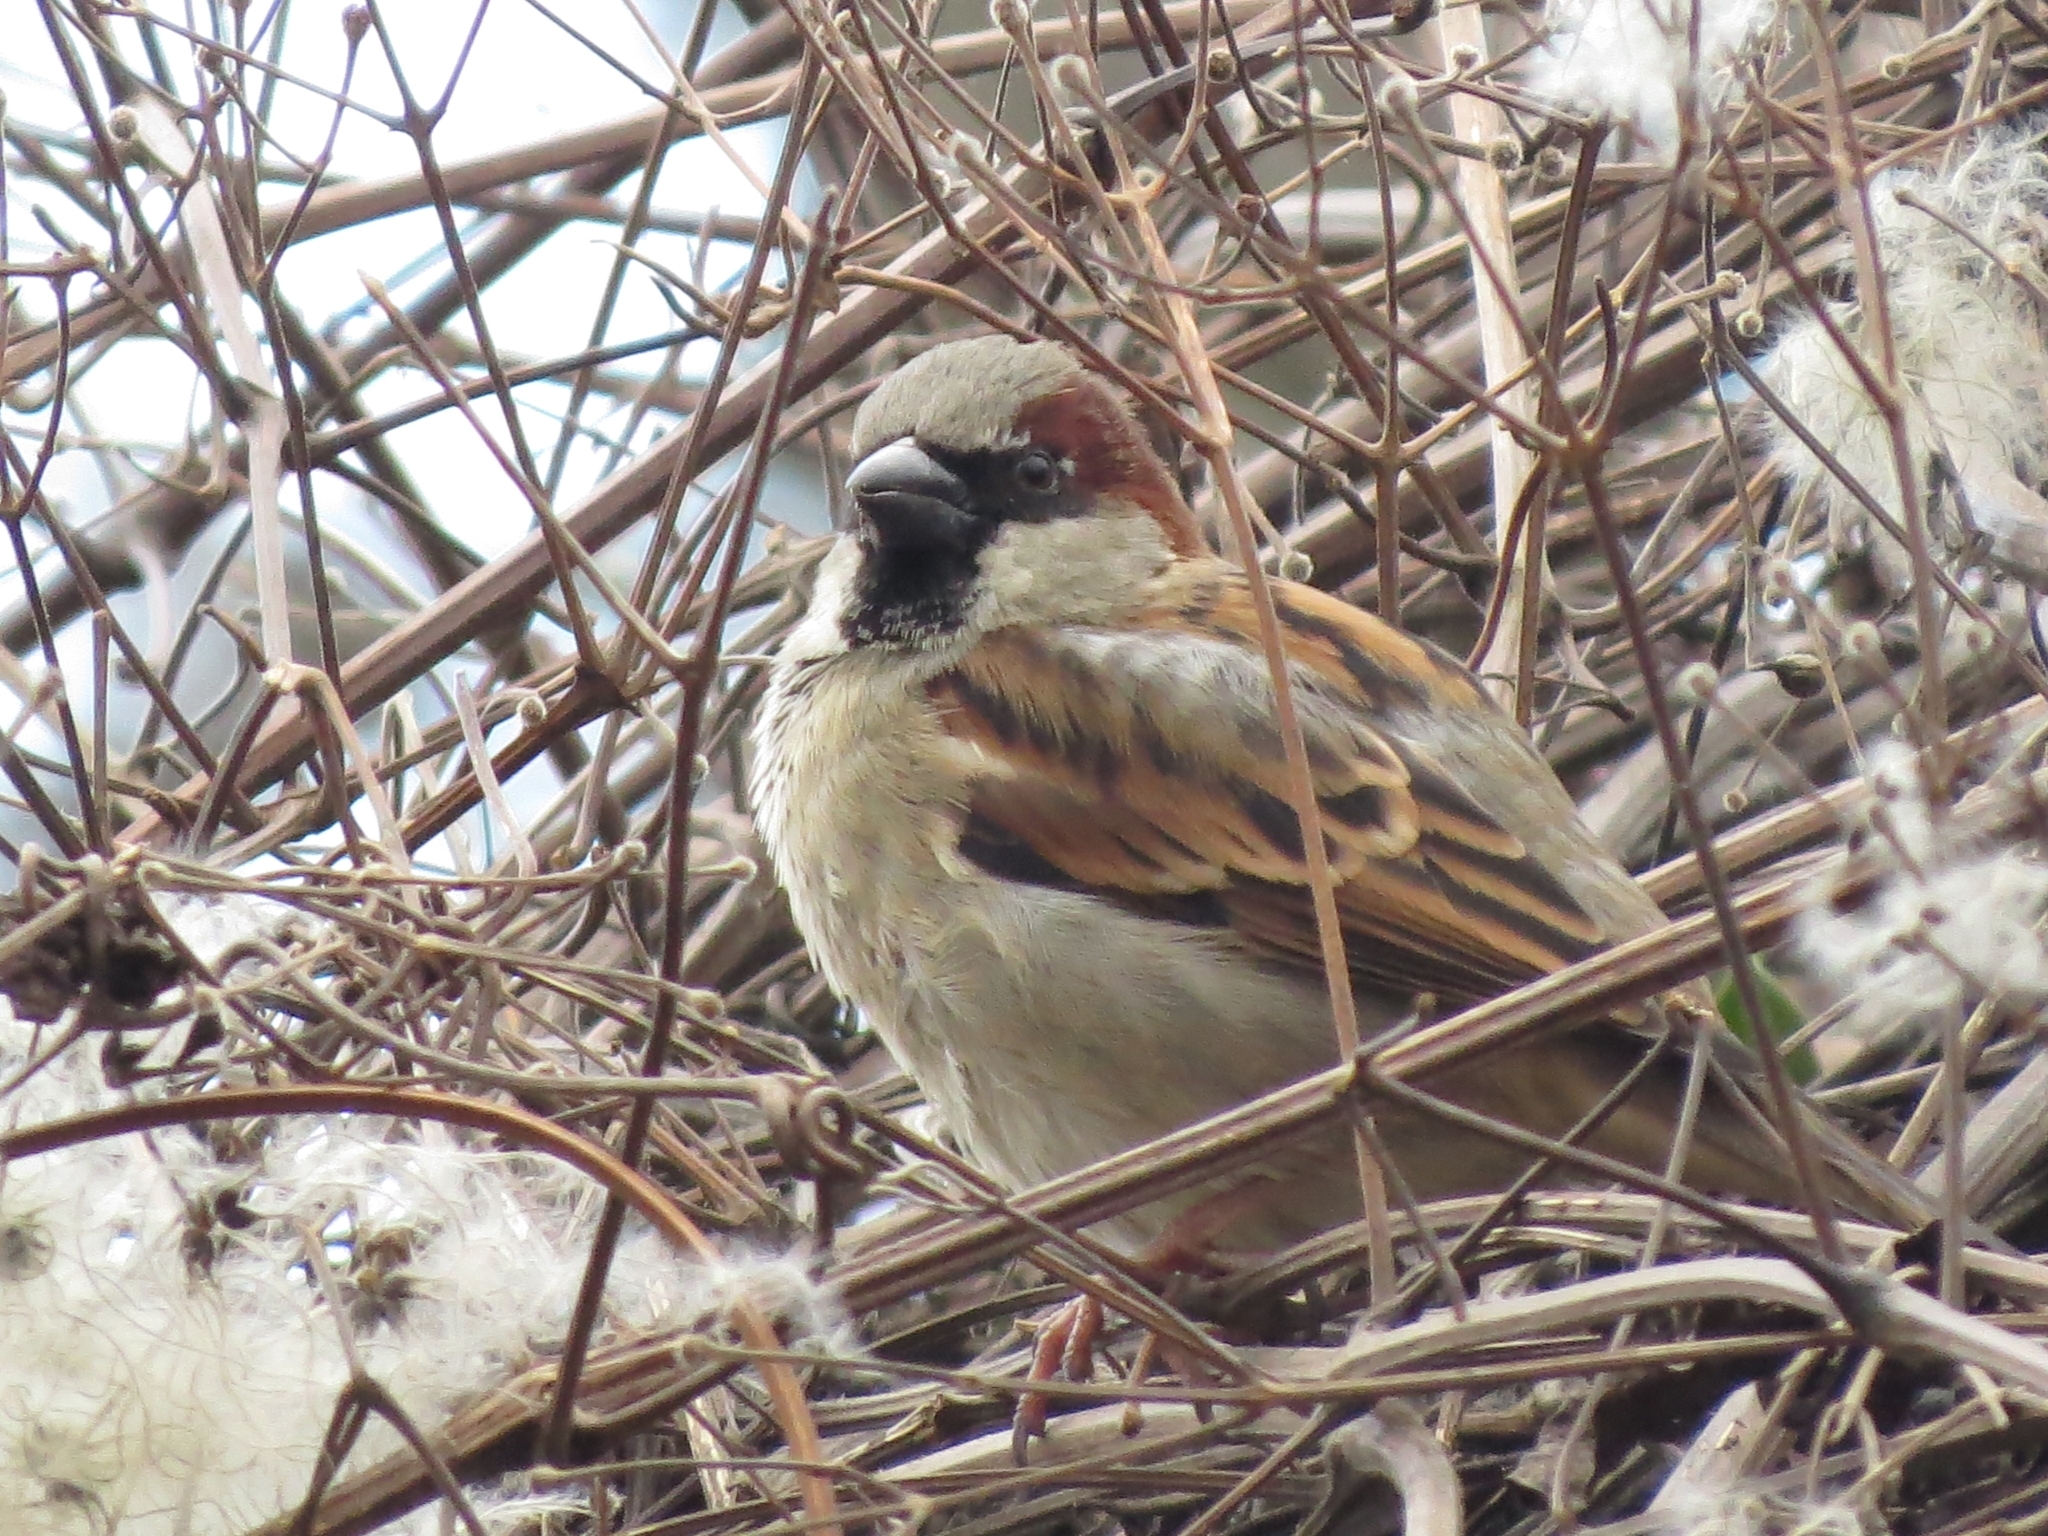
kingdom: Animalia
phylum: Chordata
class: Aves
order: Passeriformes
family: Passeridae
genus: Passer
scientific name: Passer domesticus
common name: House sparrow
